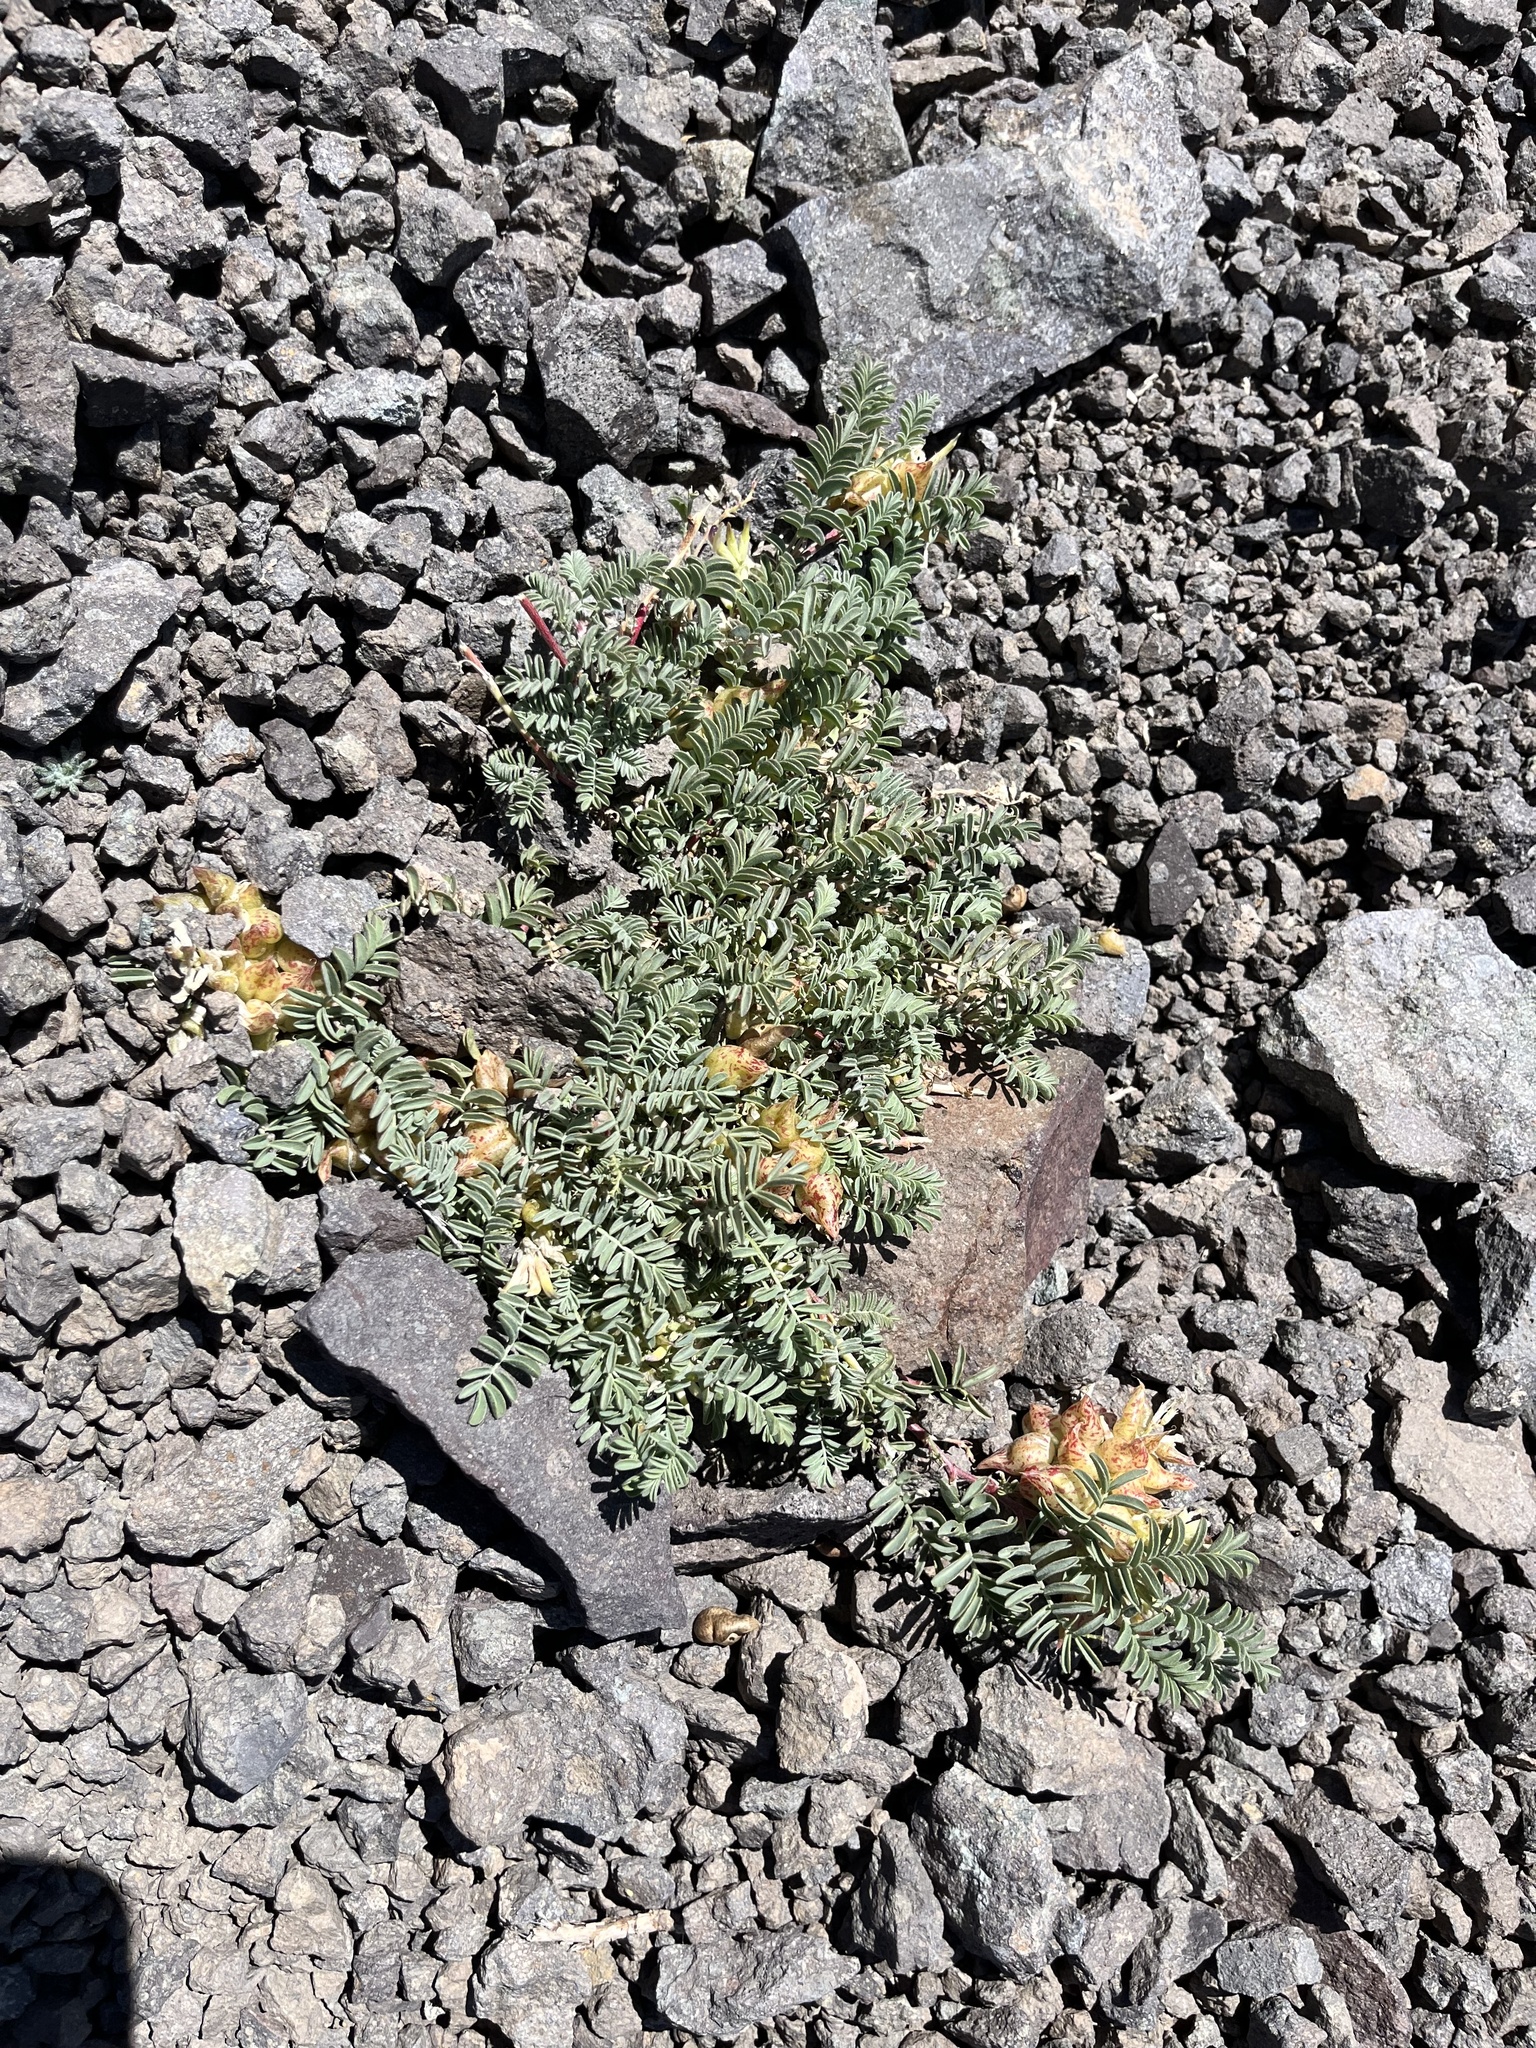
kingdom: Plantae
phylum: Tracheophyta
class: Magnoliopsida
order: Fabales
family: Fabaceae
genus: Astragalus
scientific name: Astragalus lentiginosus
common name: Freckled milkvetch
